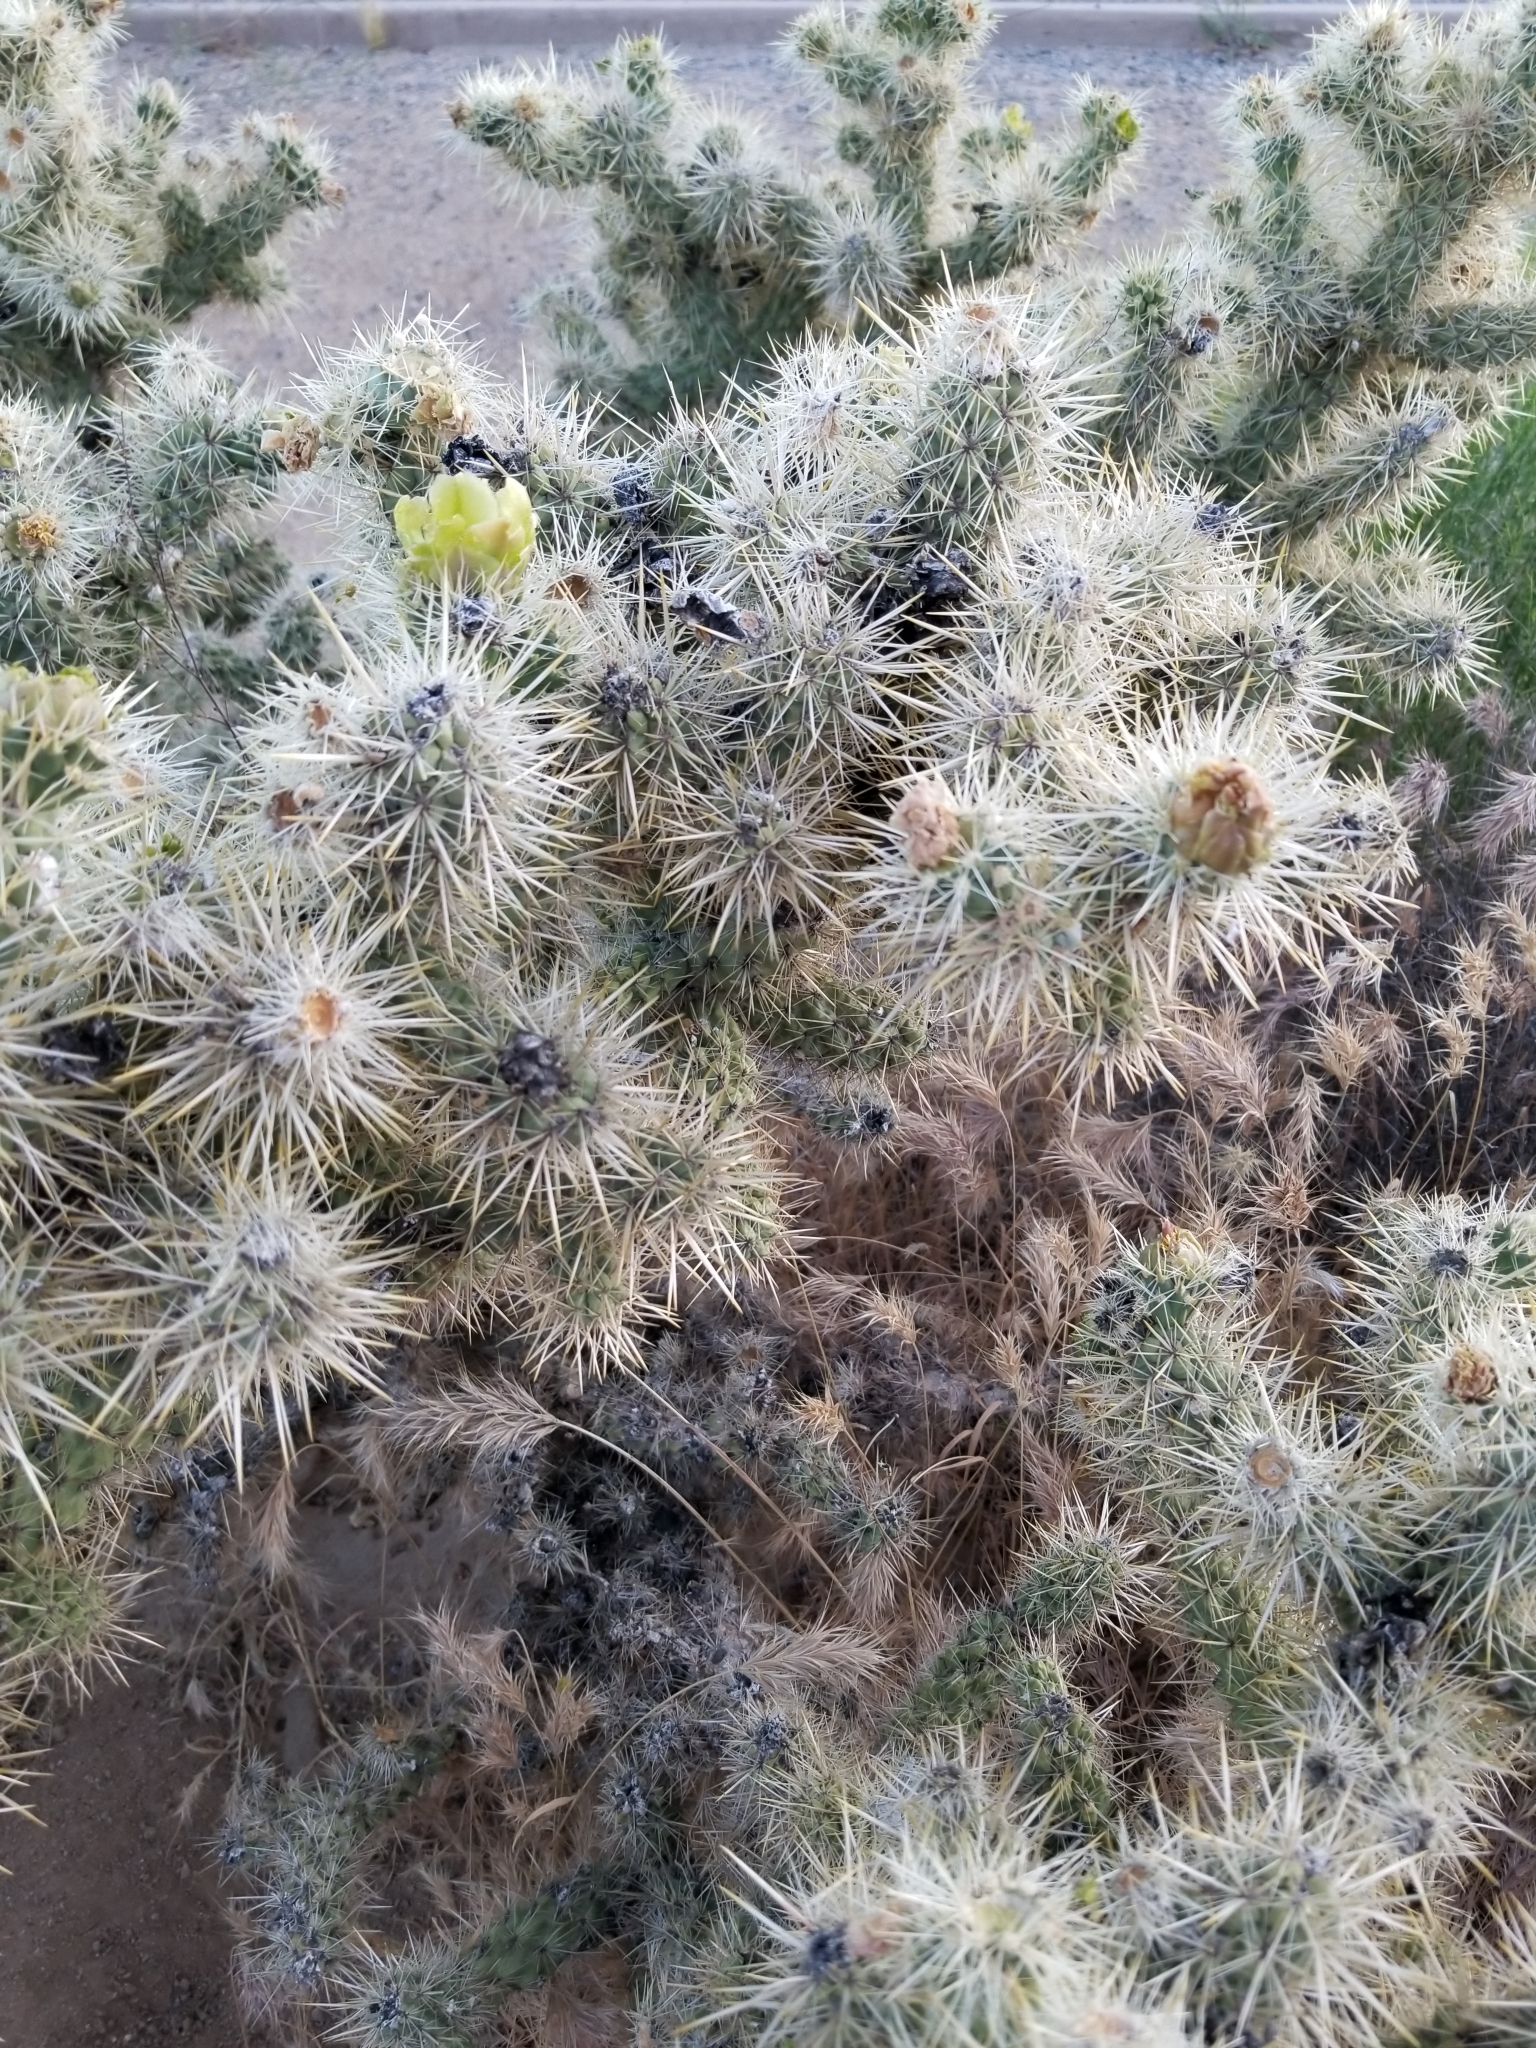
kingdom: Plantae
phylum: Tracheophyta
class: Magnoliopsida
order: Caryophyllales
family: Cactaceae
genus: Cylindropuntia
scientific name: Cylindropuntia echinocarpa
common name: Ground cholla
